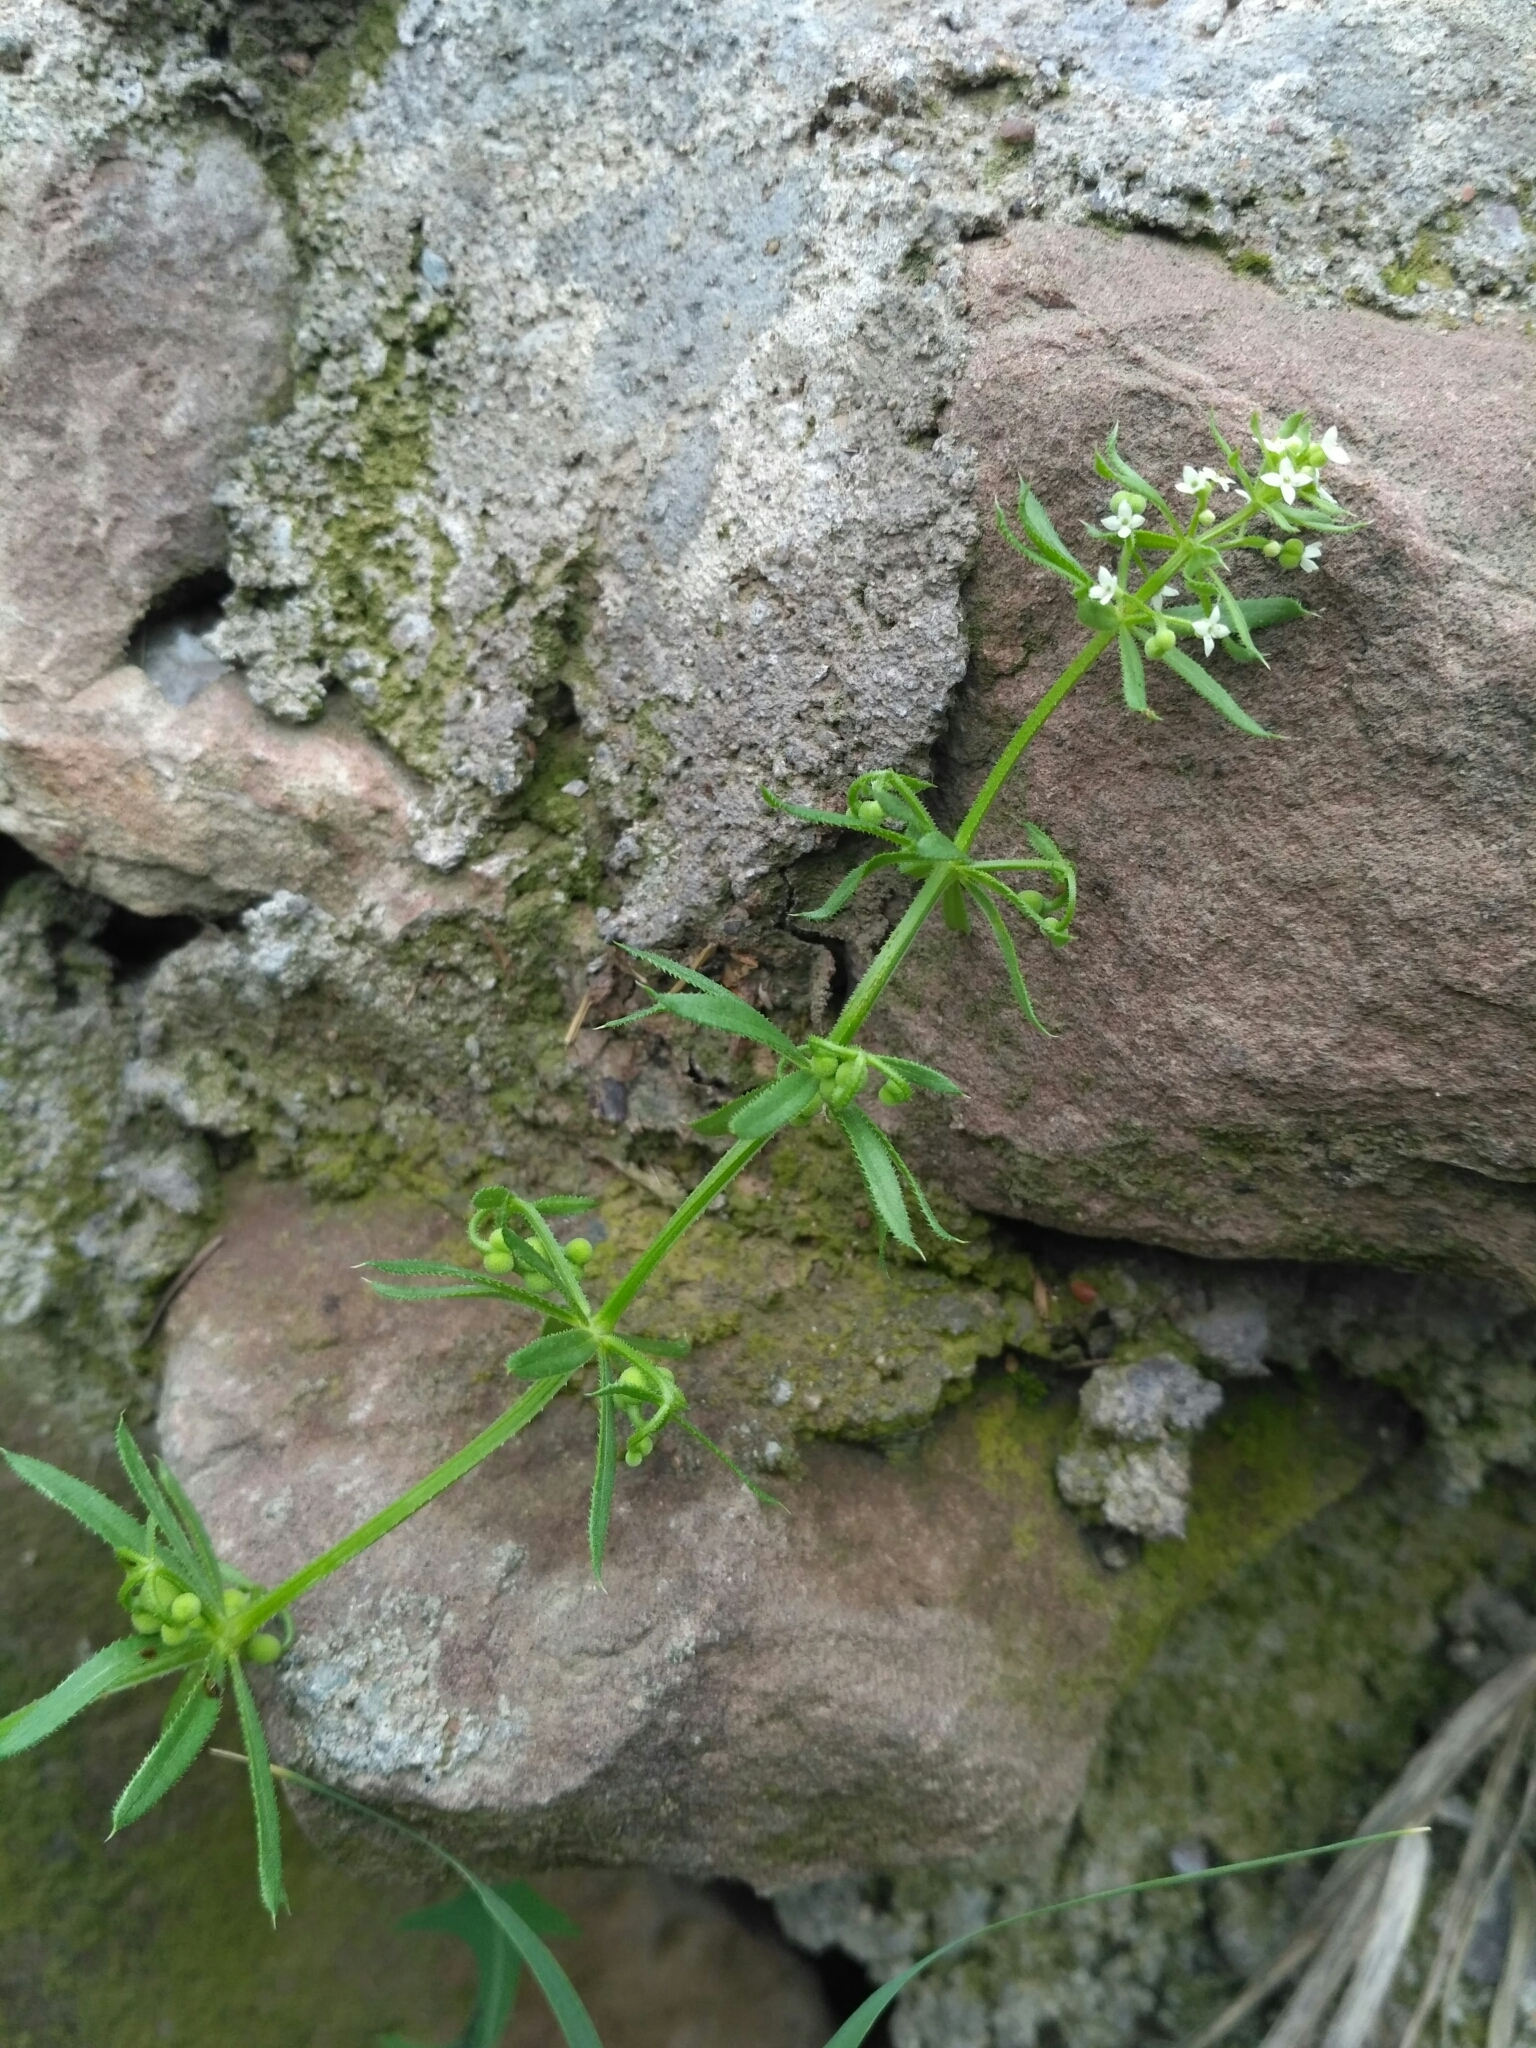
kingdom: Plantae
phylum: Tracheophyta
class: Magnoliopsida
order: Gentianales
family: Rubiaceae
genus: Galium
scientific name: Galium aparine
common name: Cleavers
